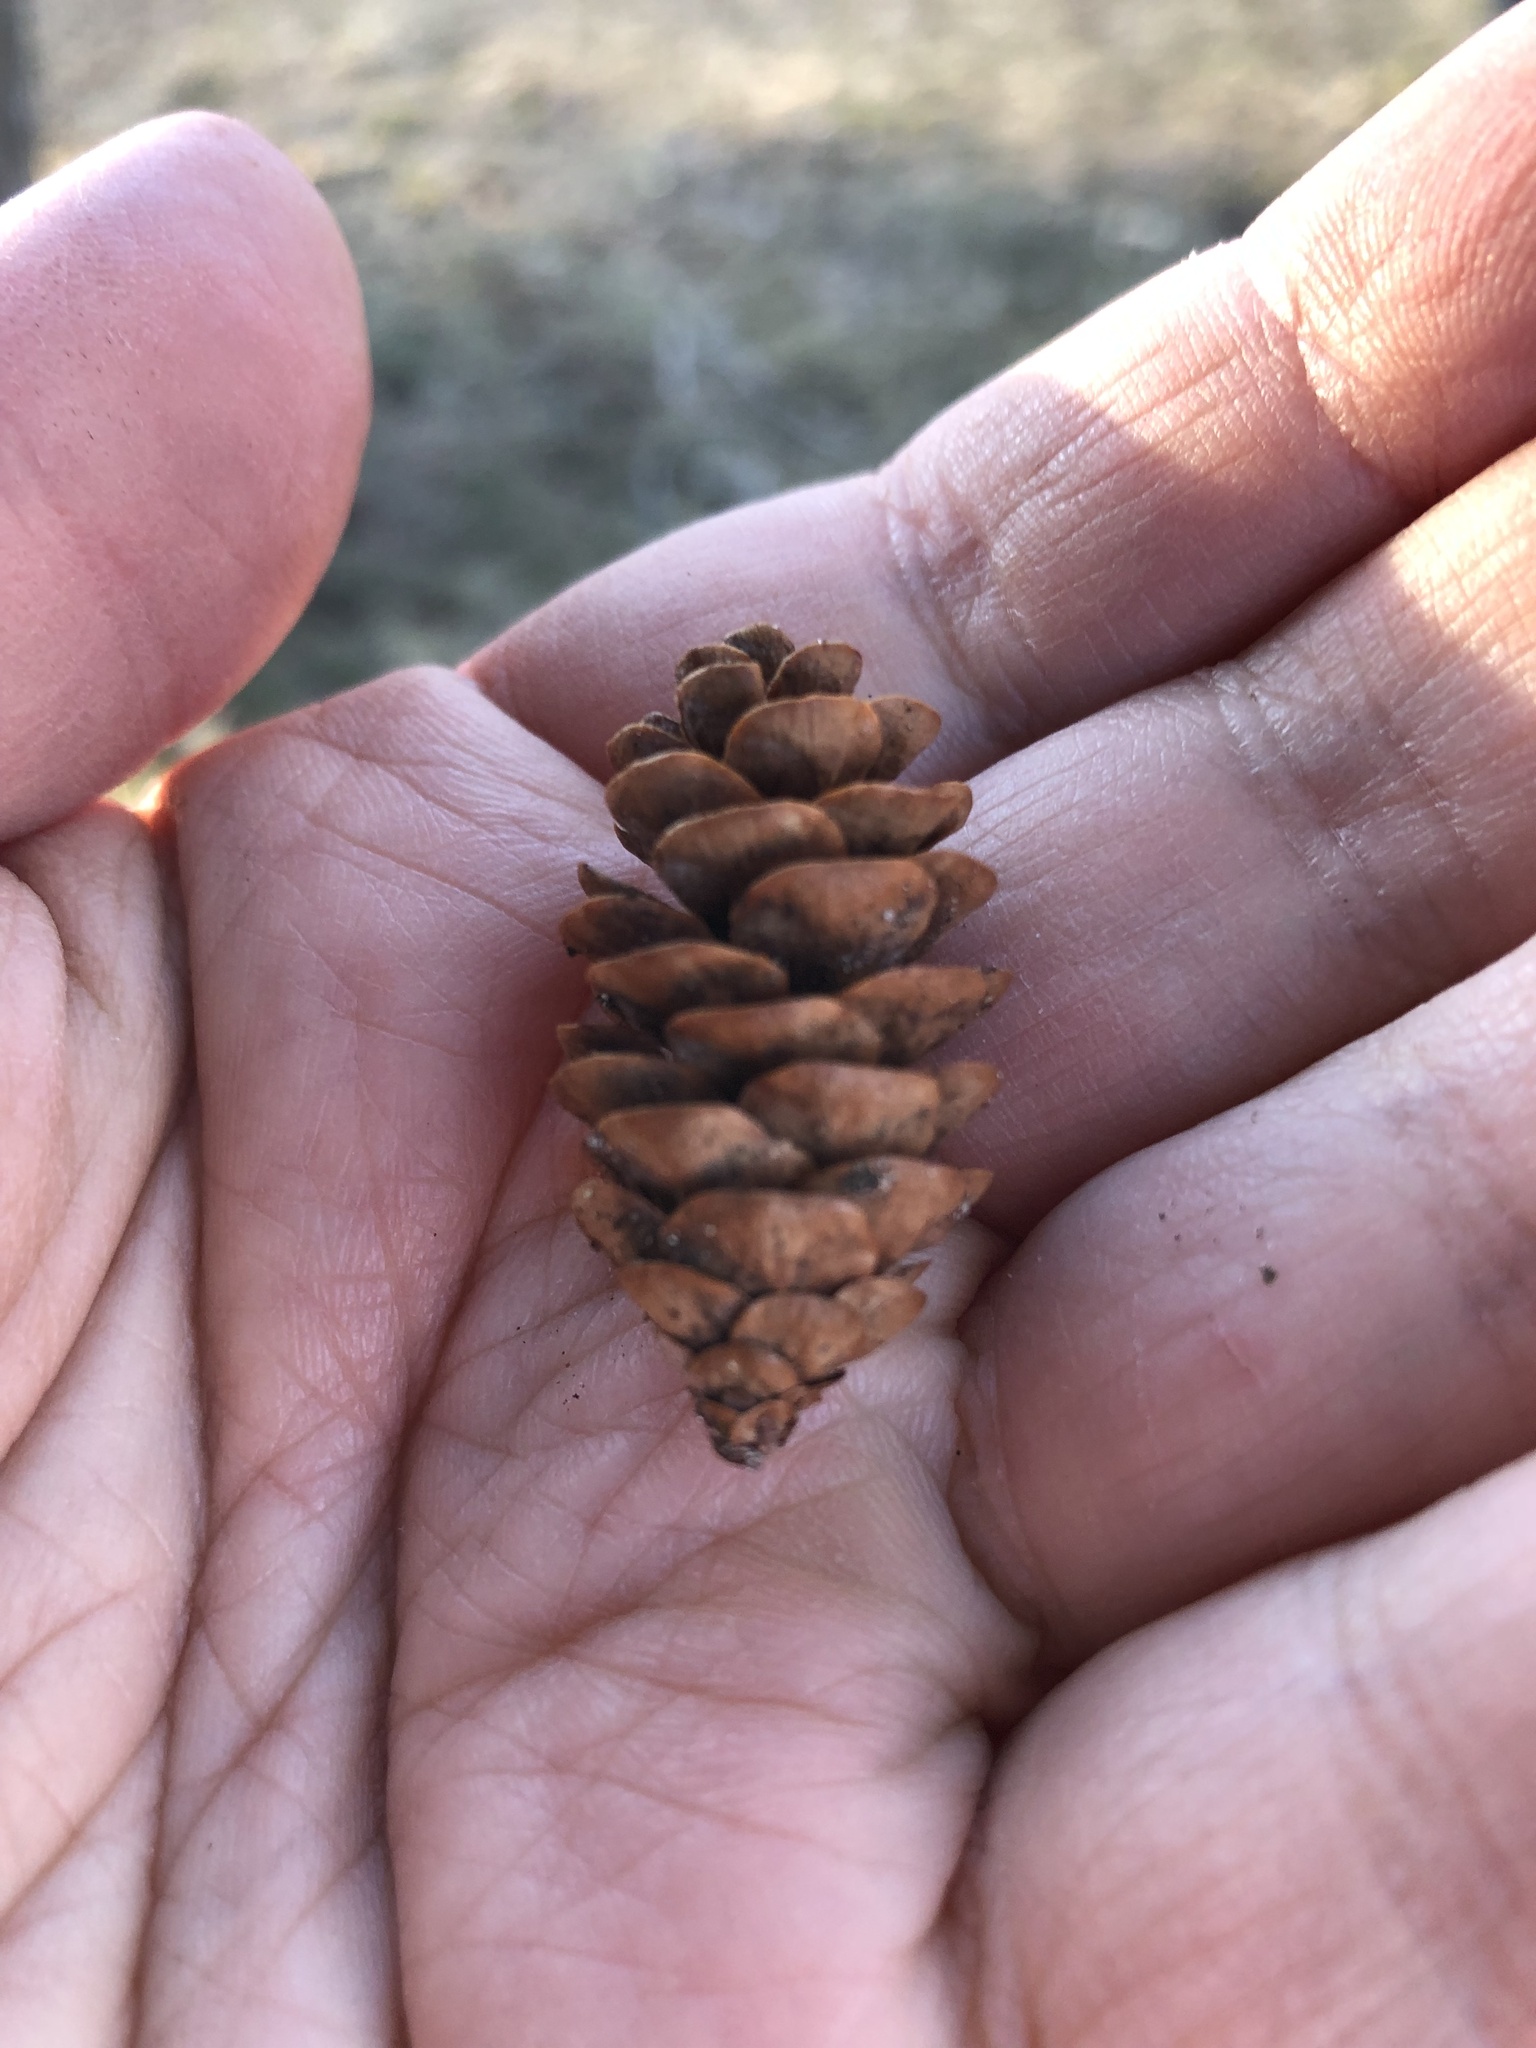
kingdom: Plantae
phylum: Tracheophyta
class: Pinopsida
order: Pinales
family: Pinaceae
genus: Picea
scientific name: Picea glauca
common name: White spruce
